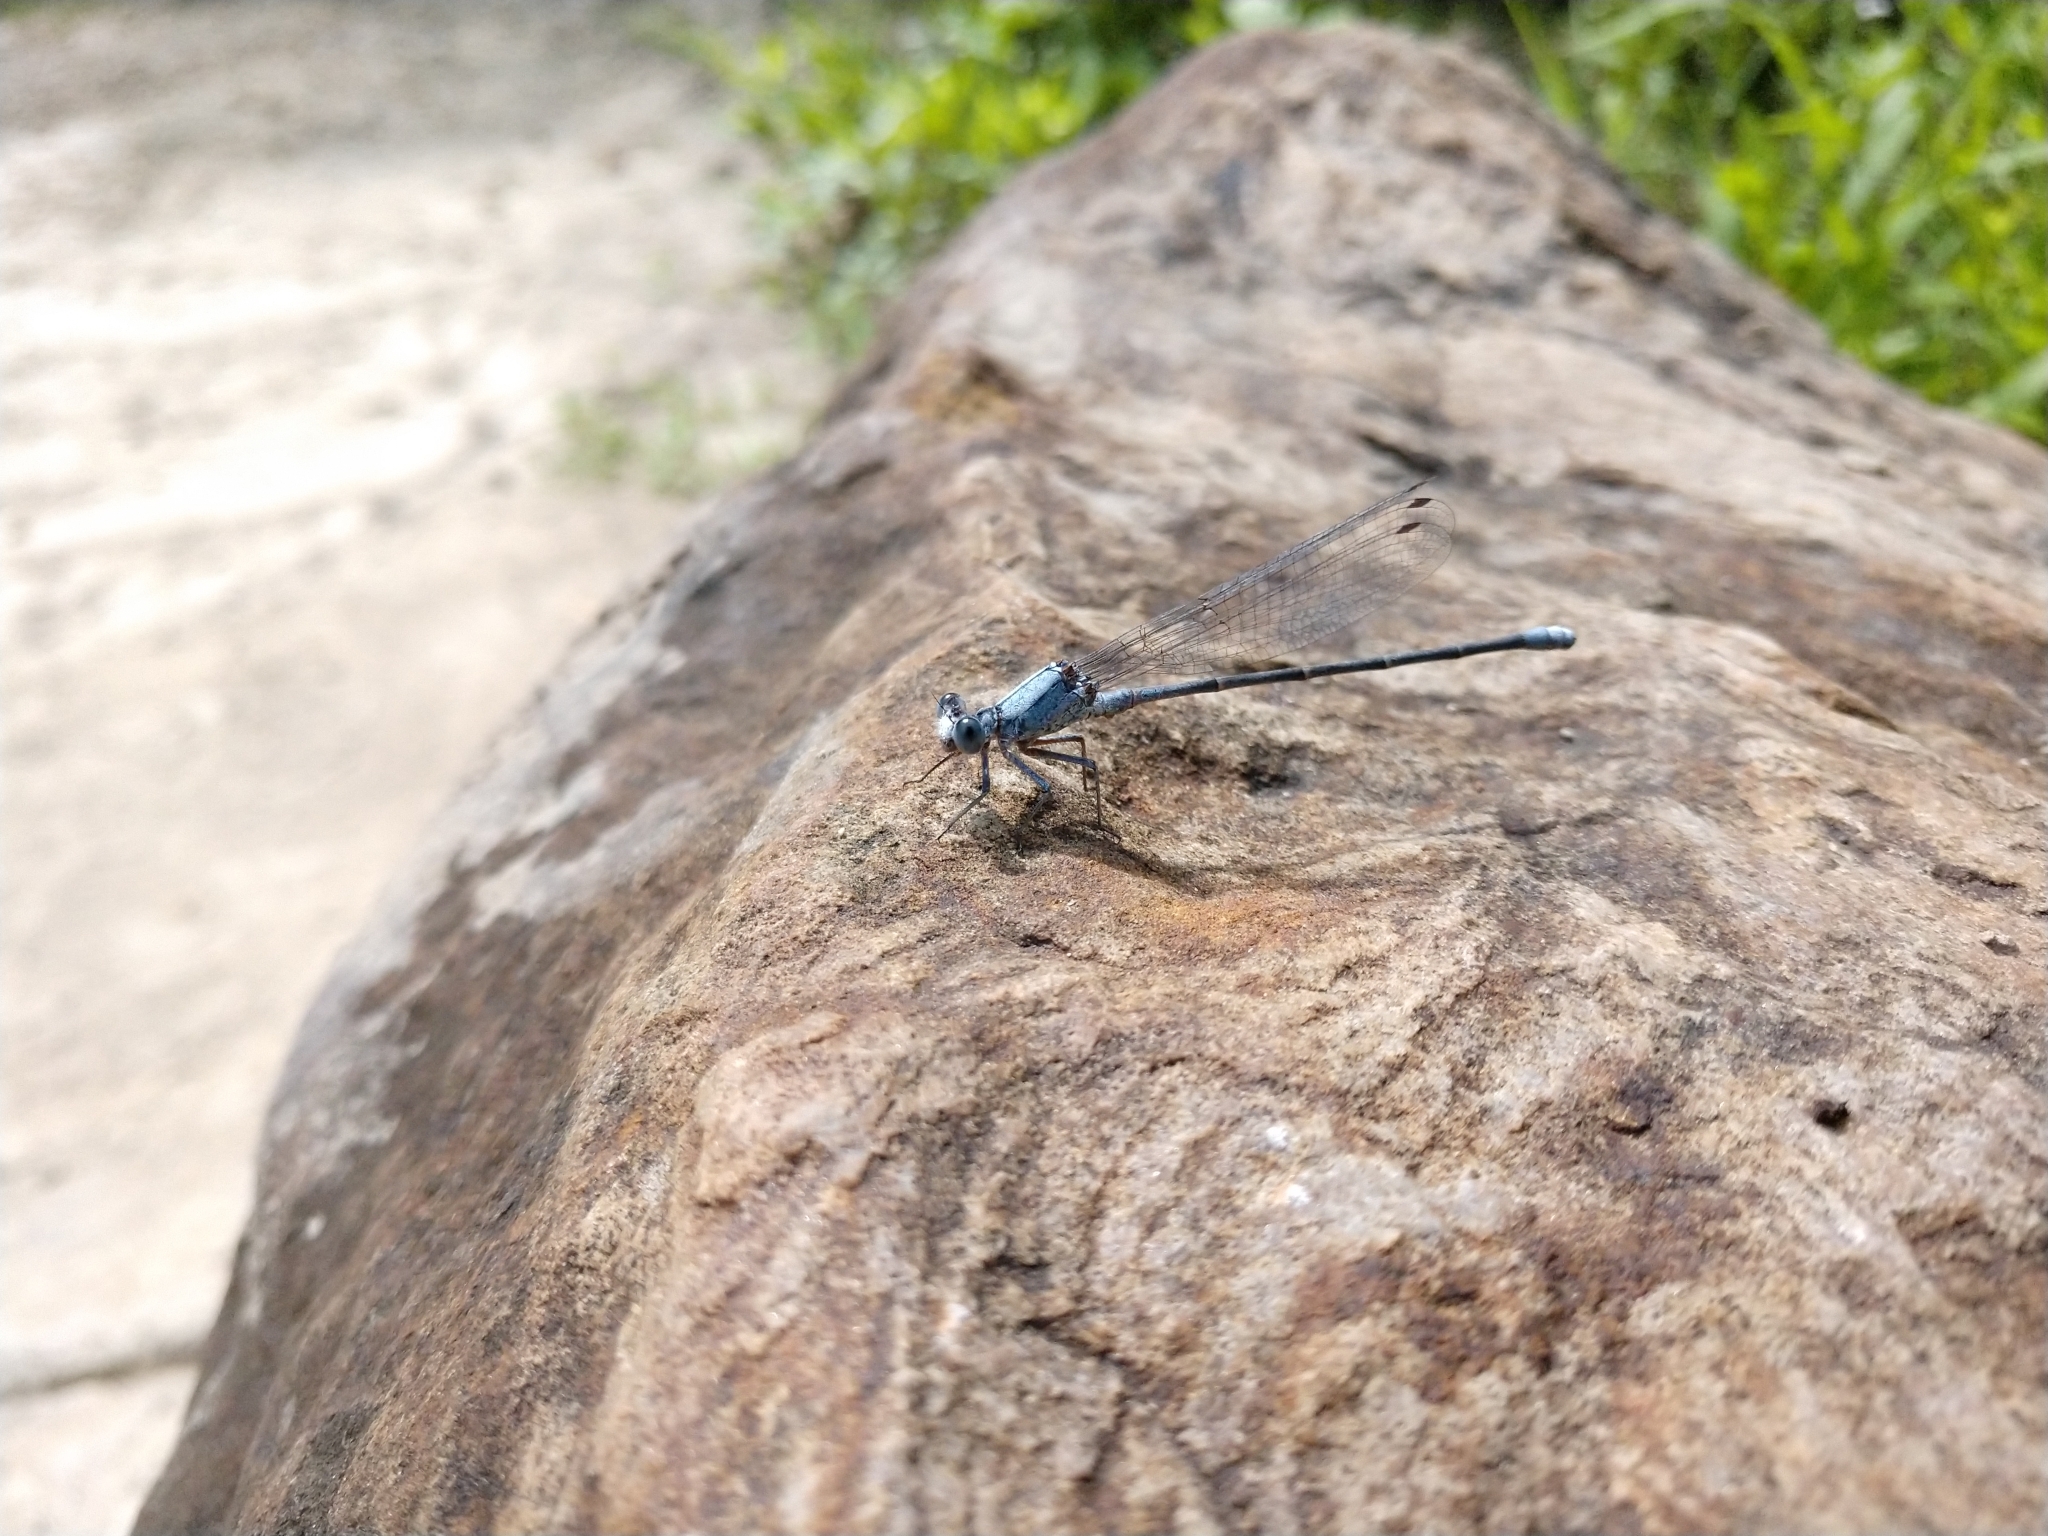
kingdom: Animalia
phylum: Arthropoda
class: Insecta
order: Odonata
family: Coenagrionidae
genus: Argia
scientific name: Argia moesta
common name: Powdered dancer
